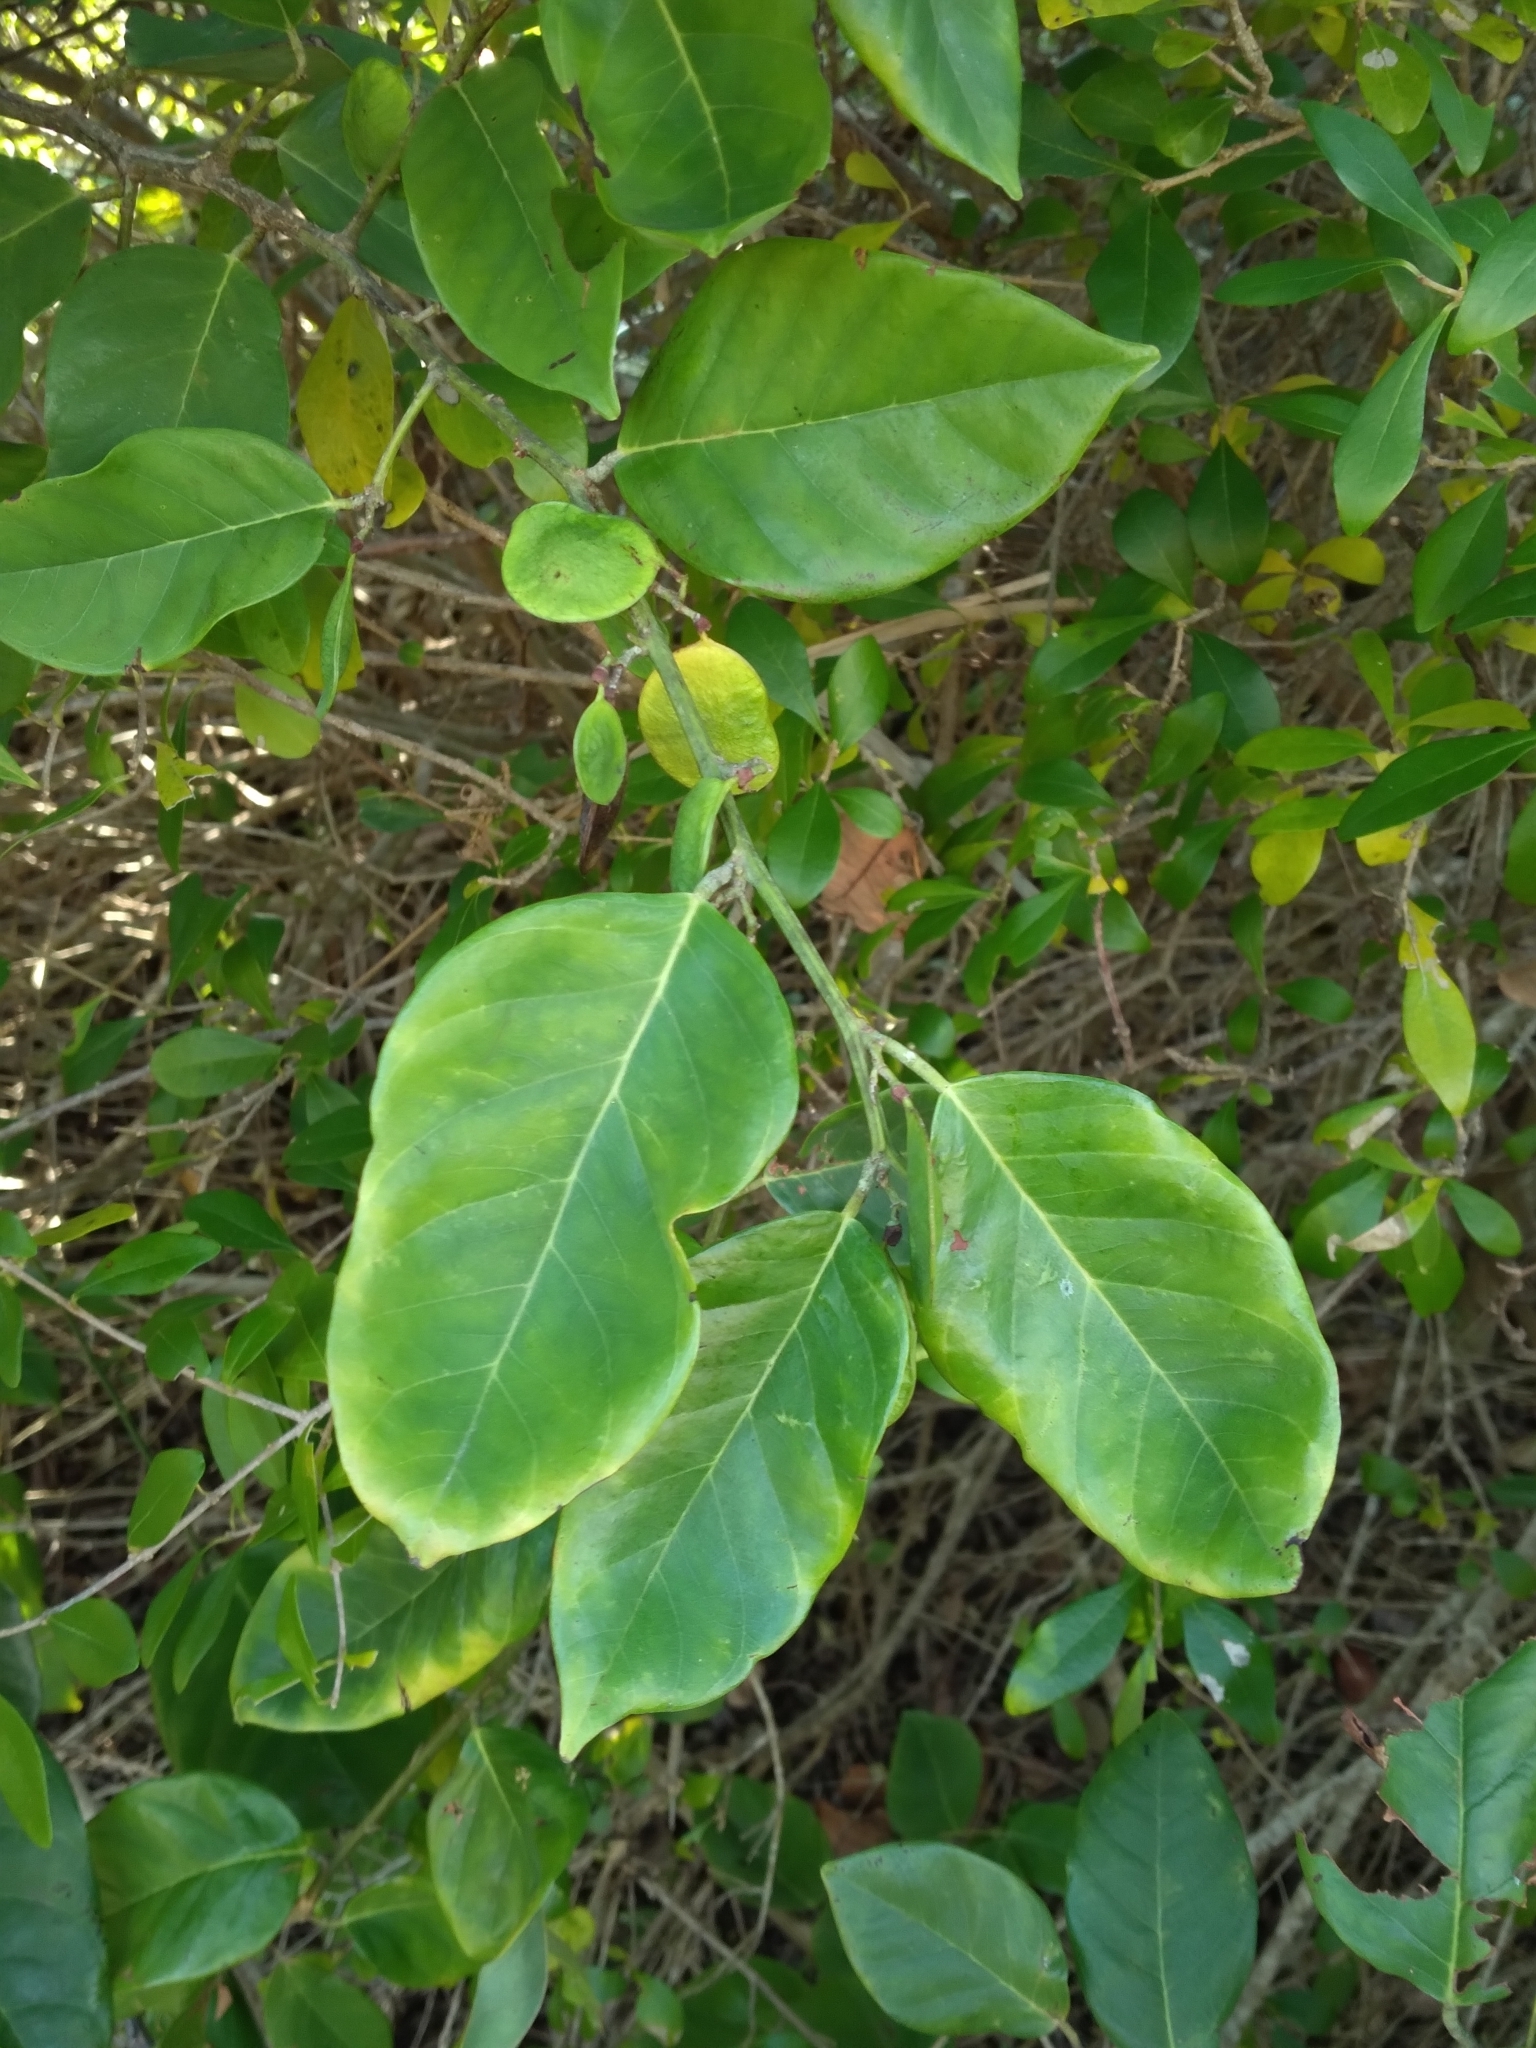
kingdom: Plantae
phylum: Tracheophyta
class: Magnoliopsida
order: Fabales
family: Fabaceae
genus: Dalbergia
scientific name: Dalbergia ecastaphyllum
